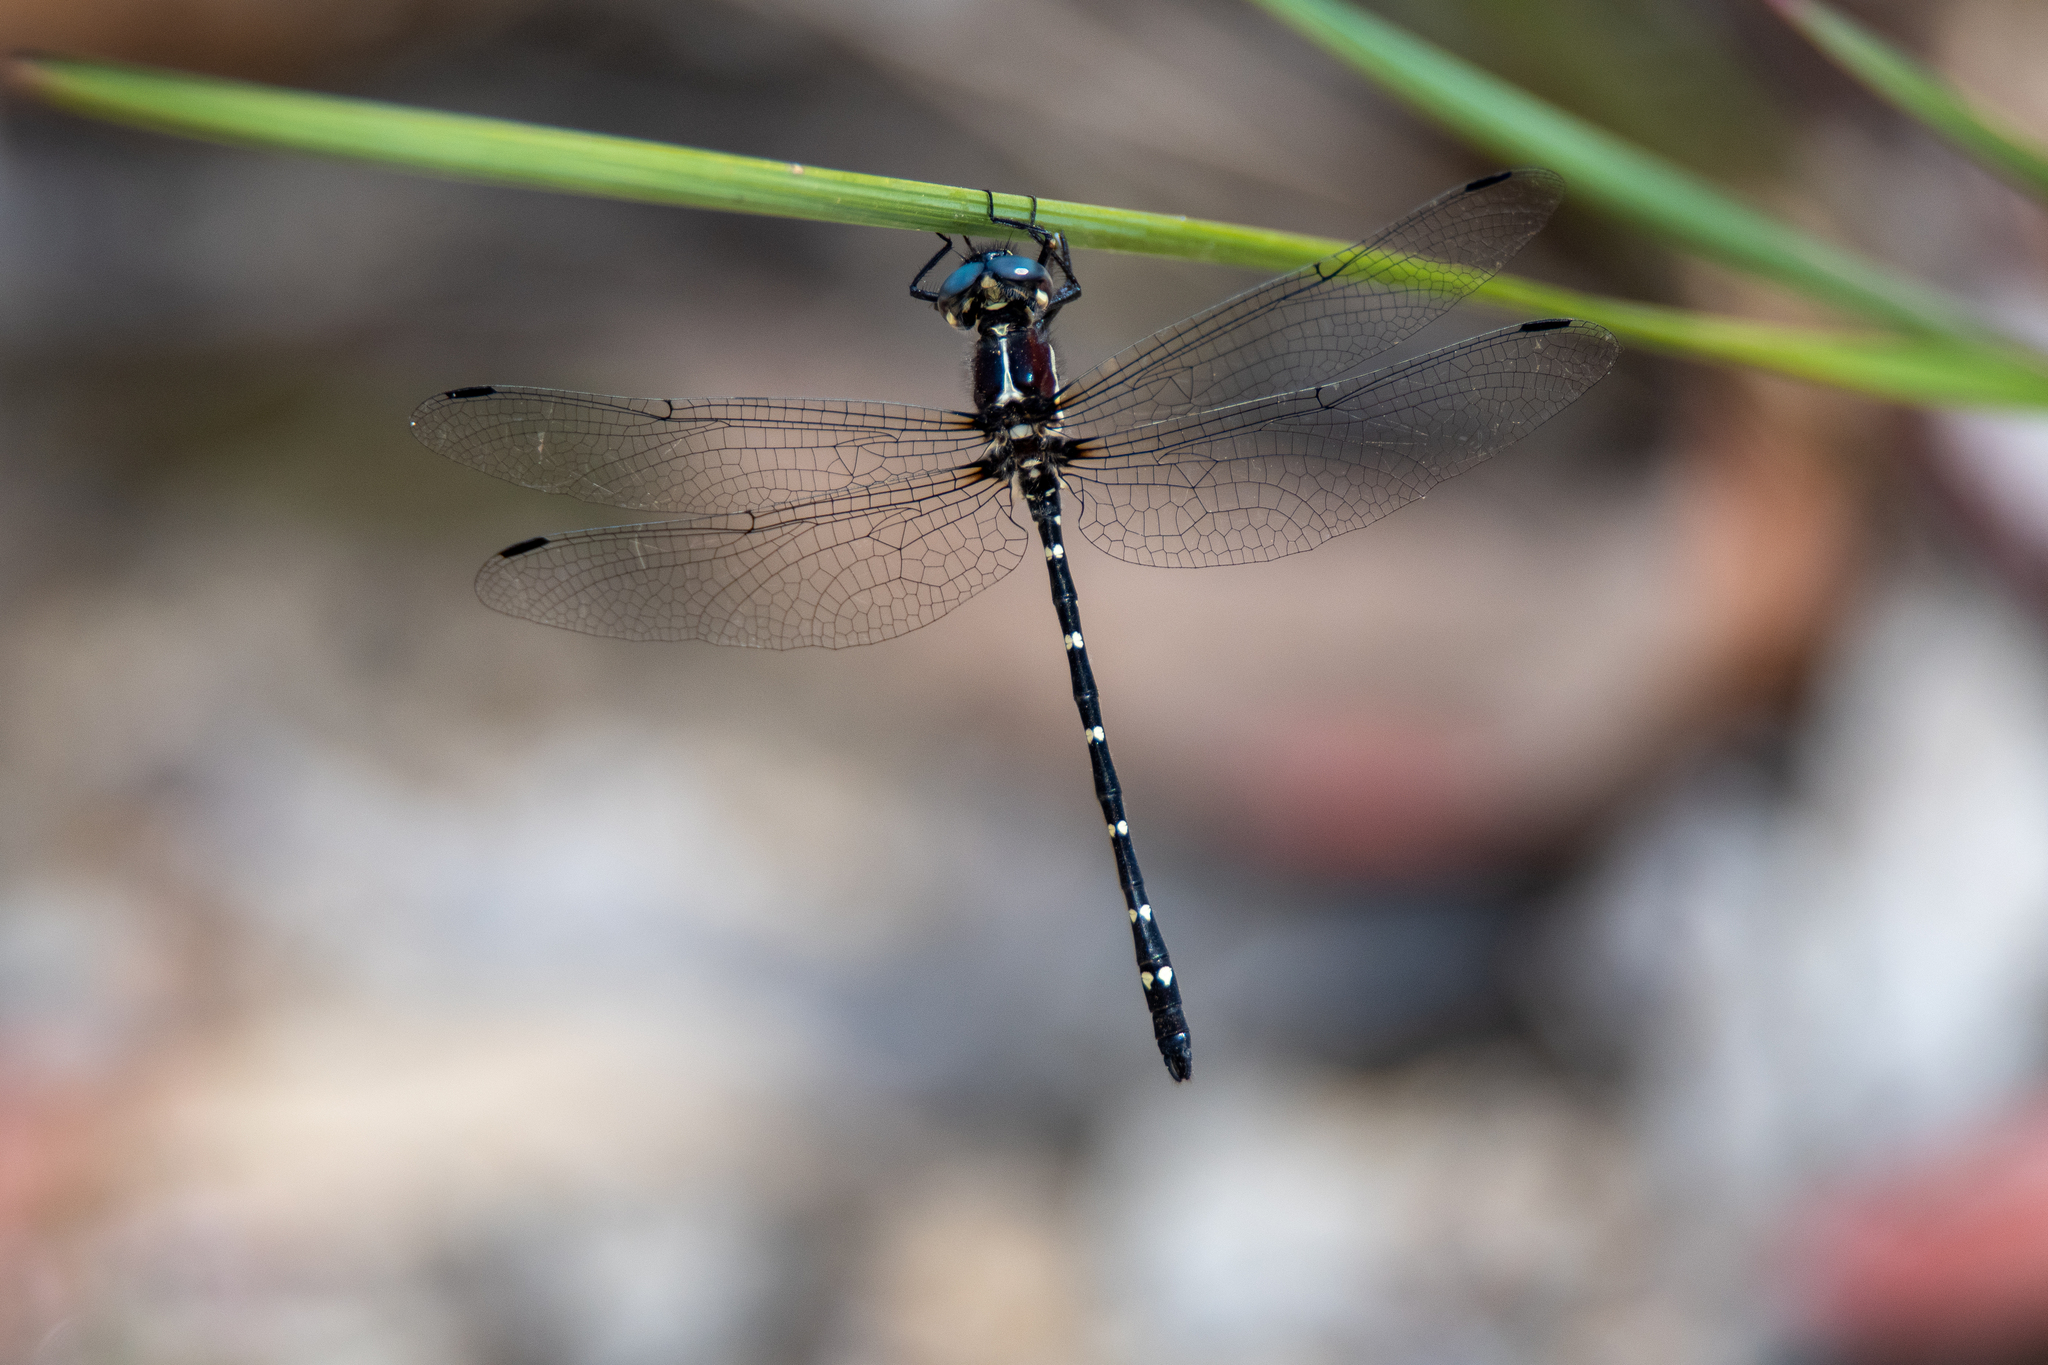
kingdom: Animalia
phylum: Arthropoda
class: Insecta
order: Odonata
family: Synthemistidae
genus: Eusynthemis
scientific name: Eusynthemis tillyardi
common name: Mountain tigertail
